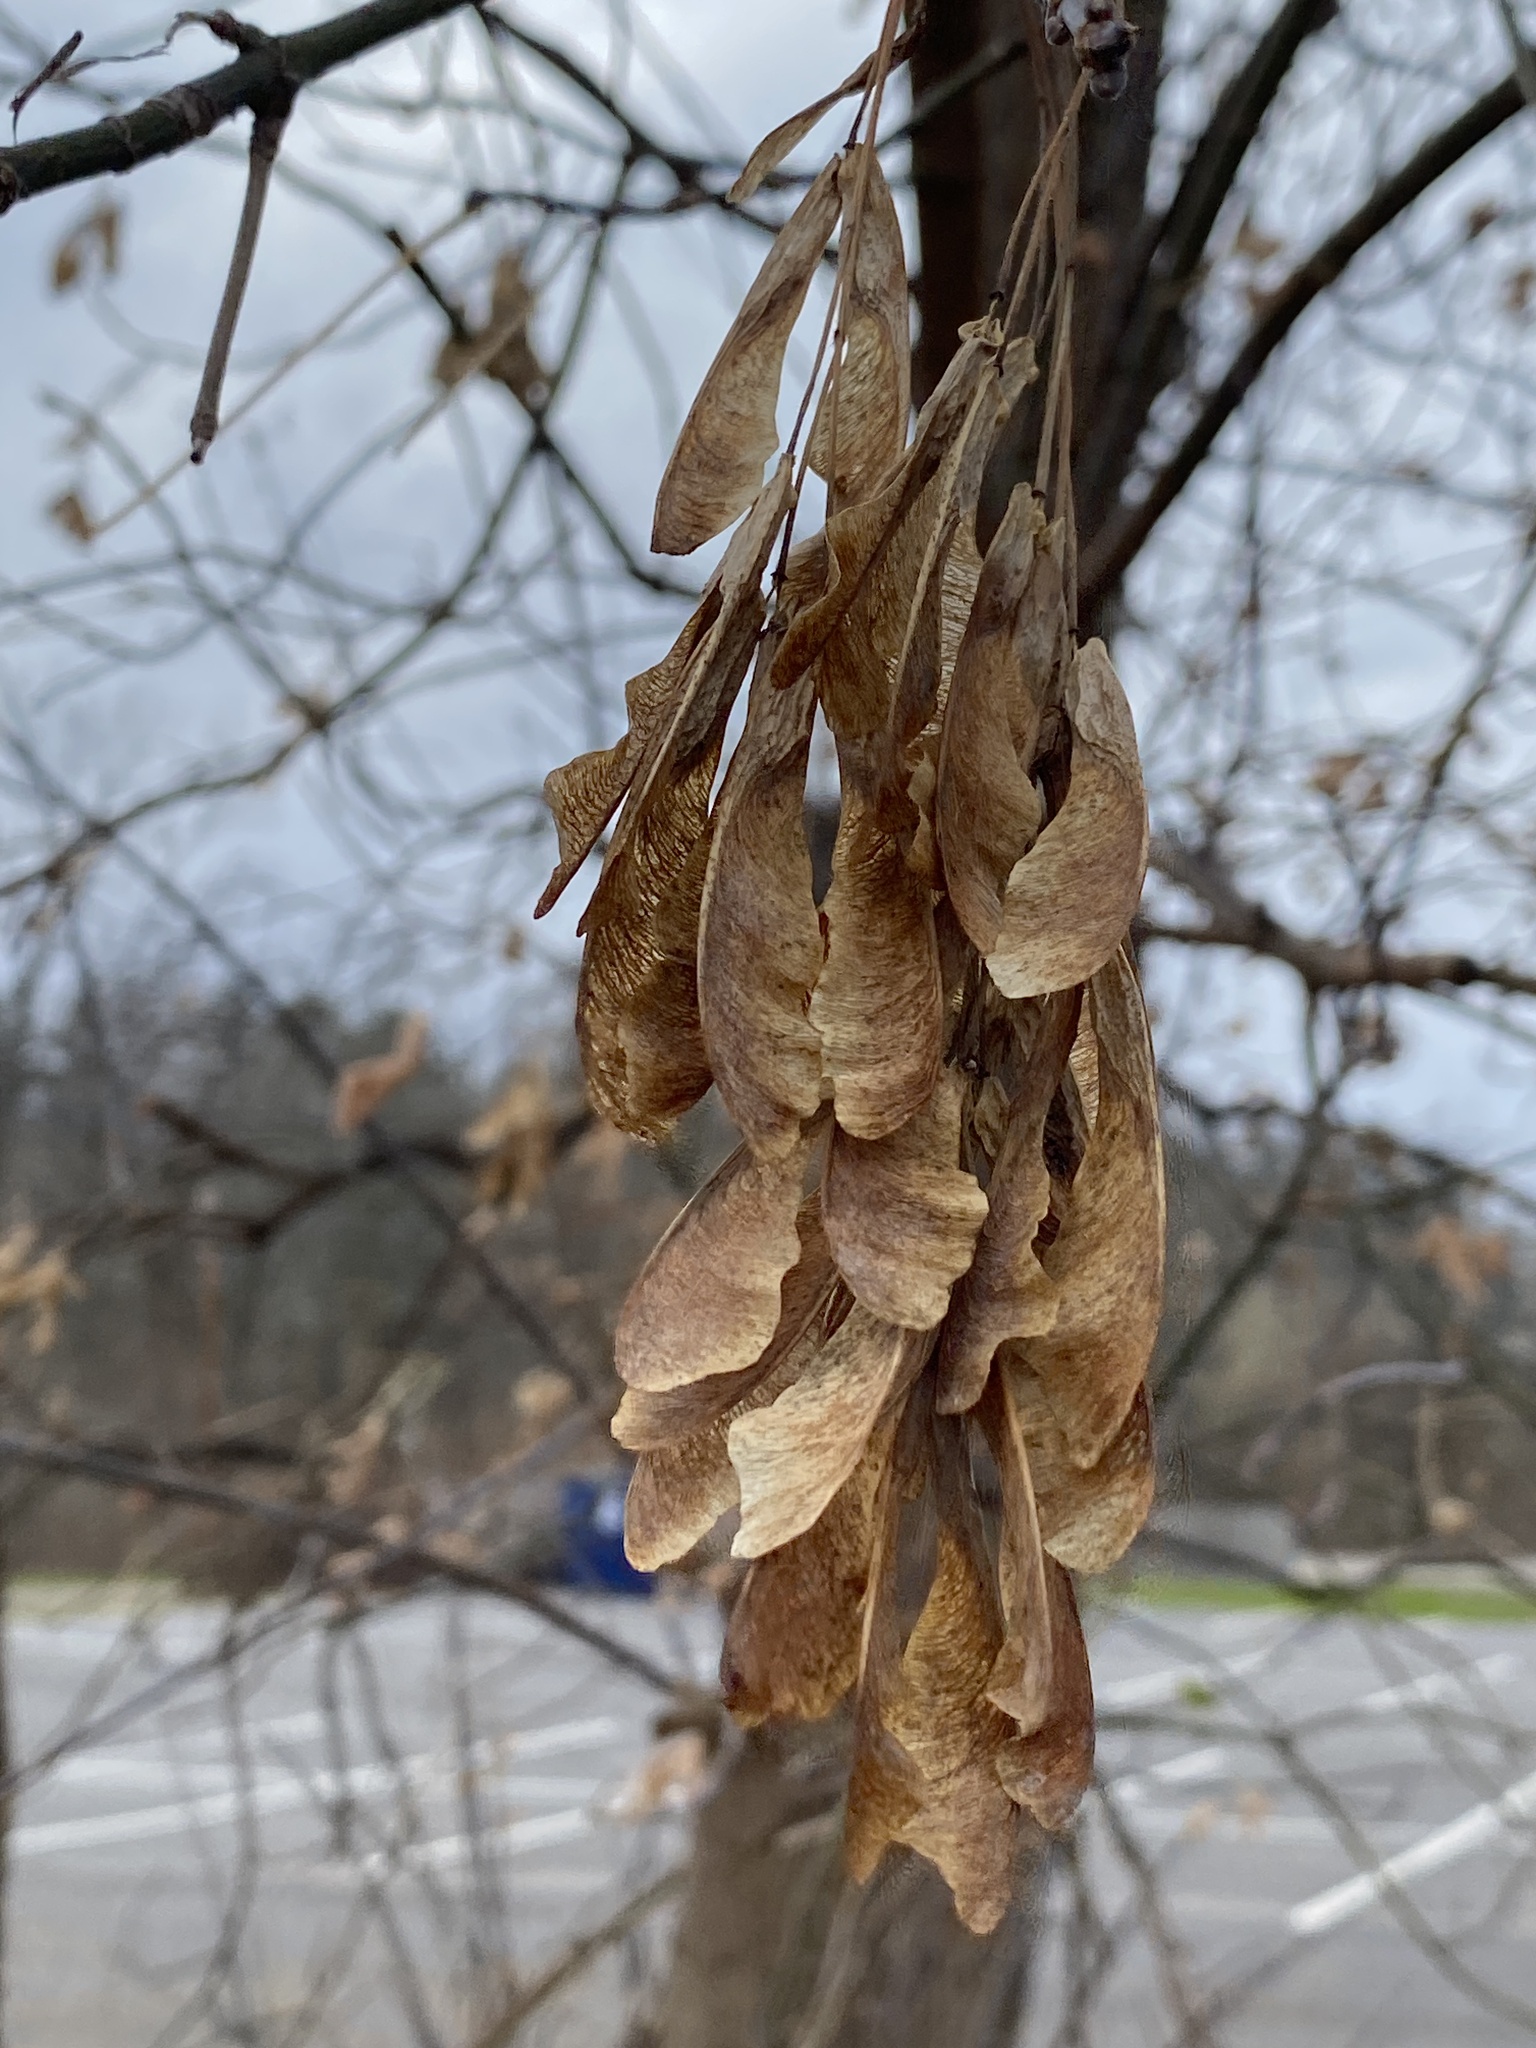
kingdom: Plantae
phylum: Tracheophyta
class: Magnoliopsida
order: Sapindales
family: Sapindaceae
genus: Acer
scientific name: Acer negundo
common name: Ashleaf maple
